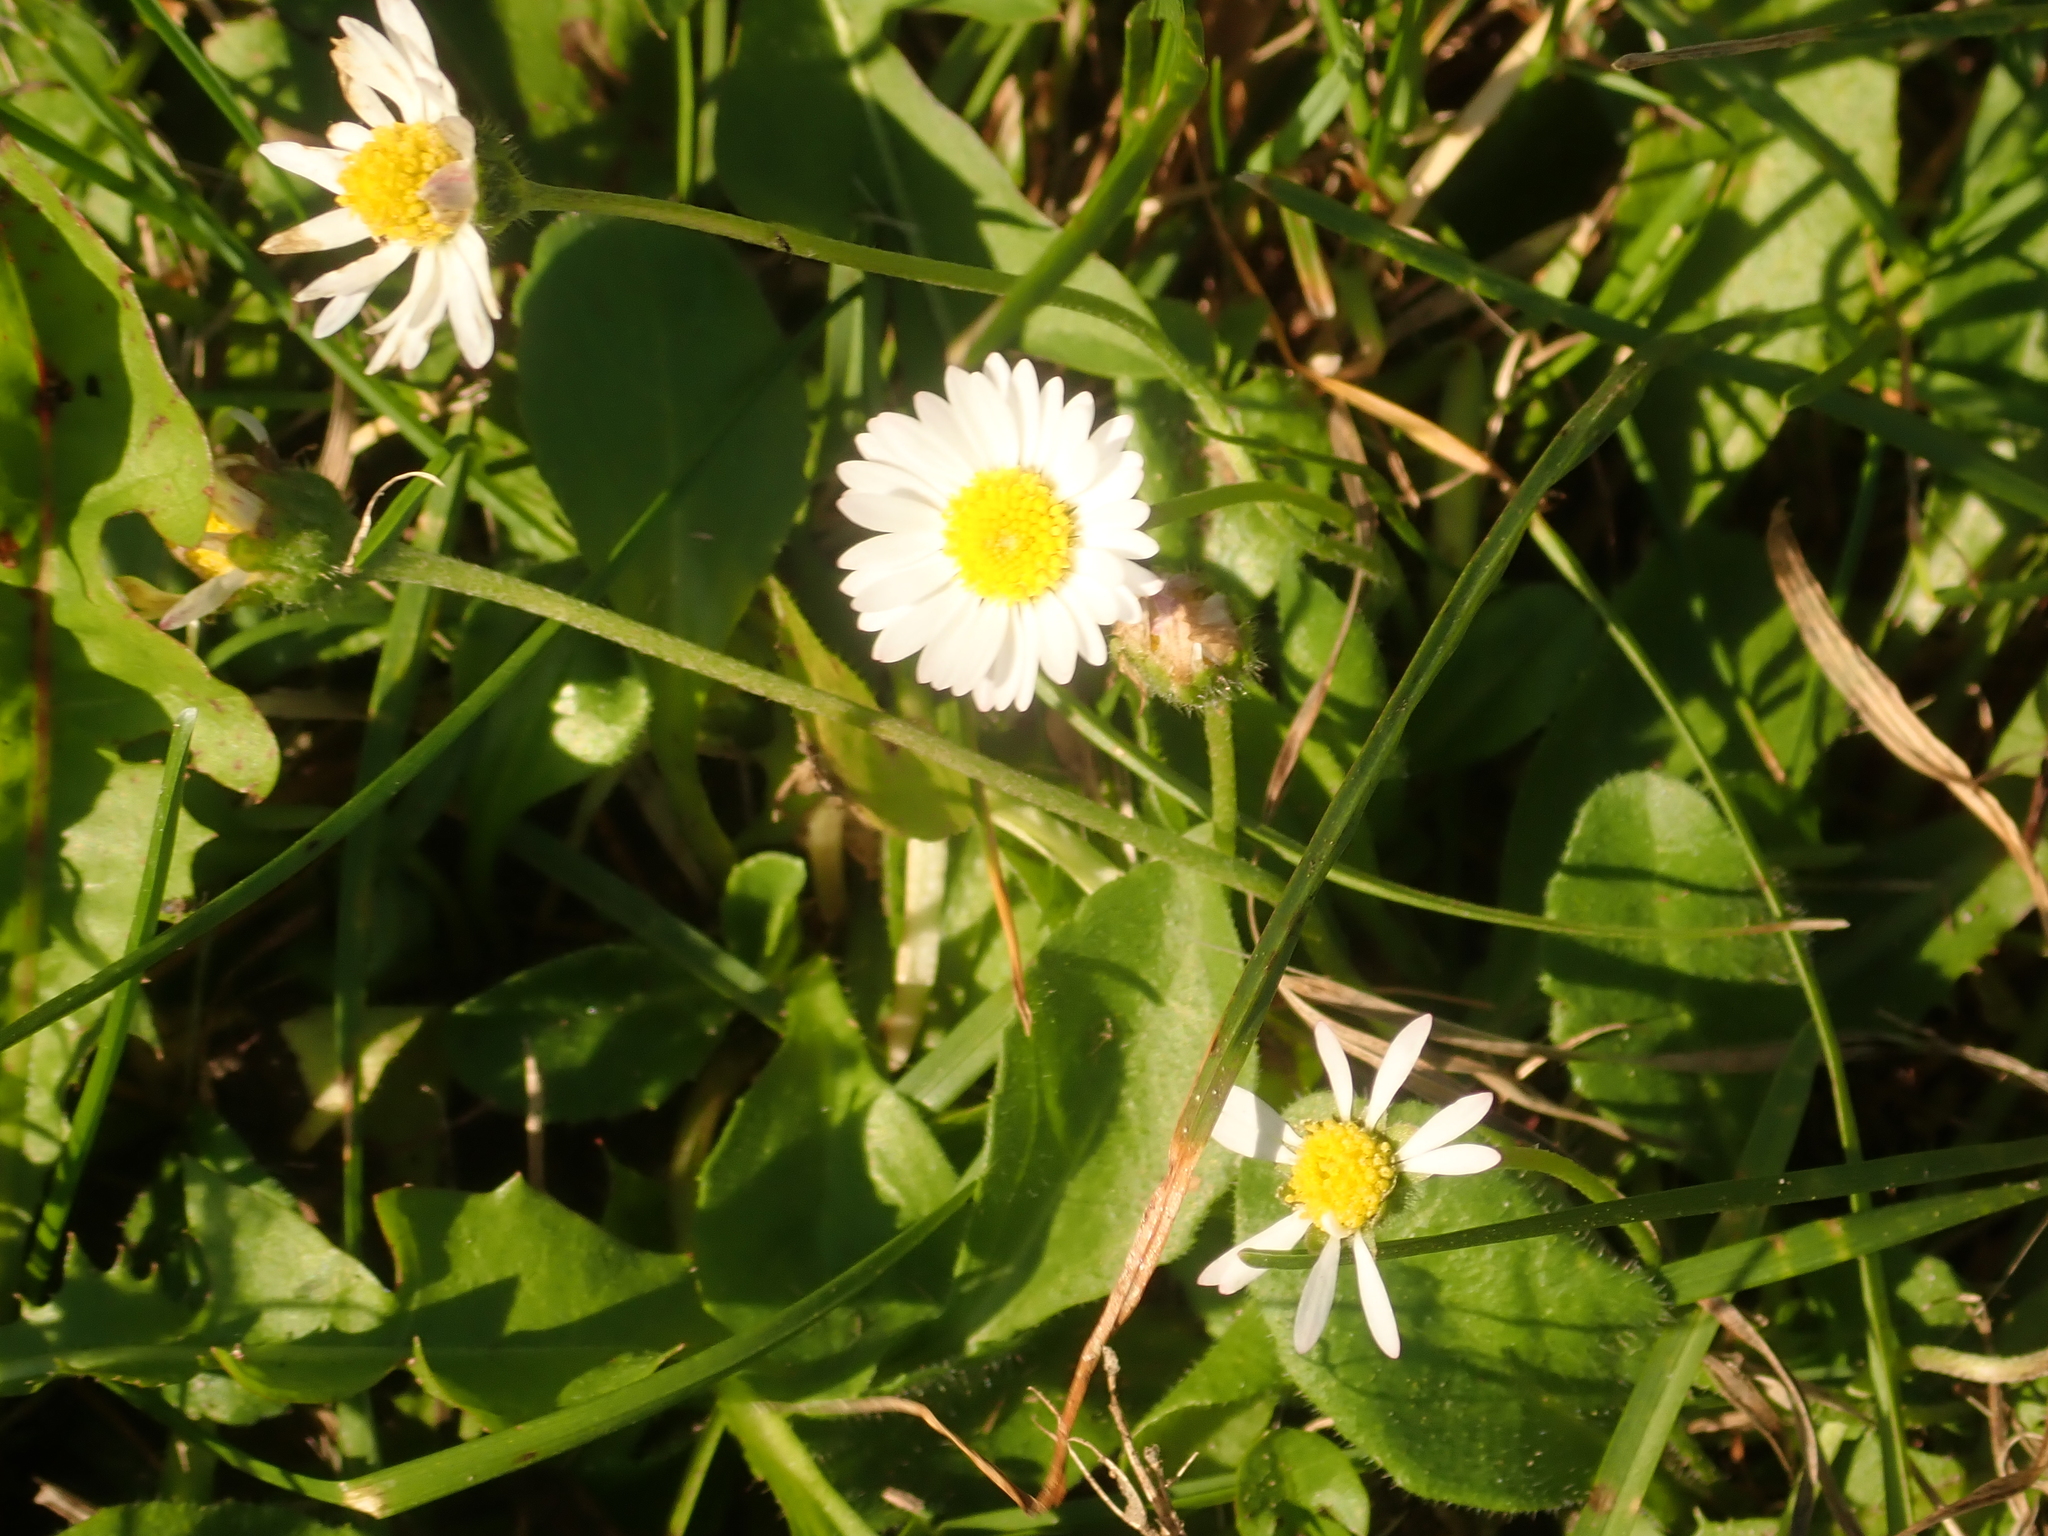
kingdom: Plantae
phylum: Tracheophyta
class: Magnoliopsida
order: Asterales
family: Asteraceae
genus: Bellis
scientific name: Bellis perennis
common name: Lawndaisy
